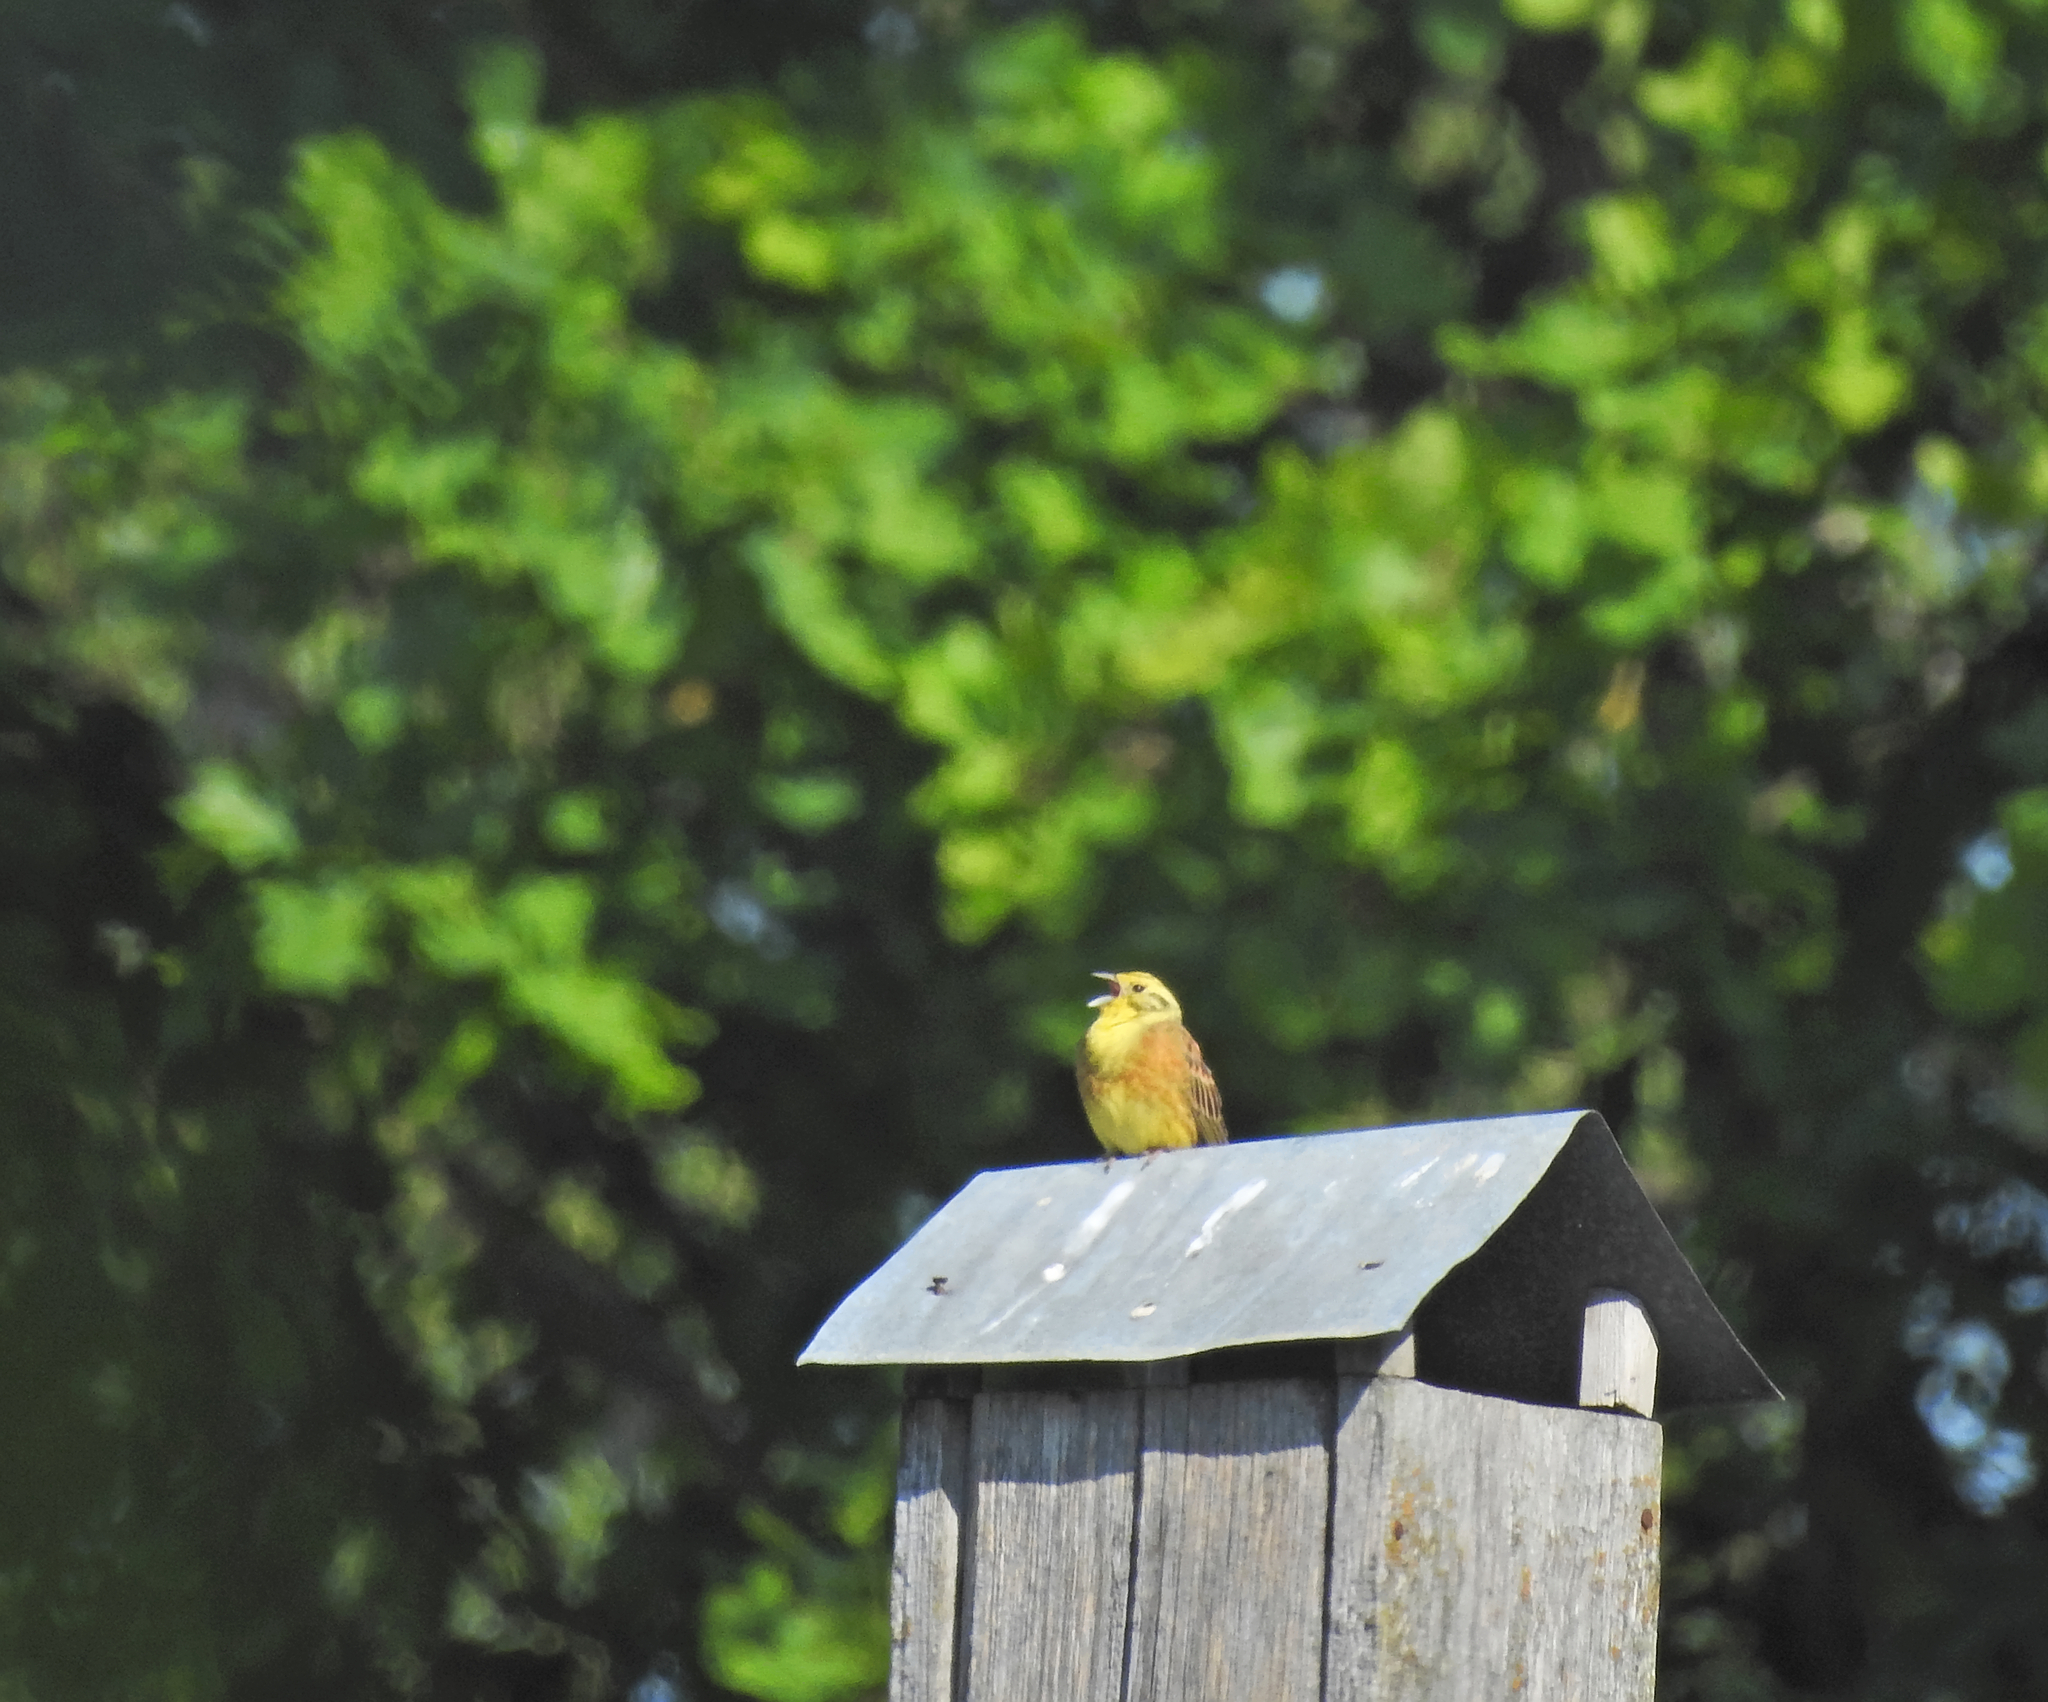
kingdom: Animalia
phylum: Chordata
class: Aves
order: Passeriformes
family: Emberizidae
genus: Emberiza
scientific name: Emberiza citrinella
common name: Yellowhammer
